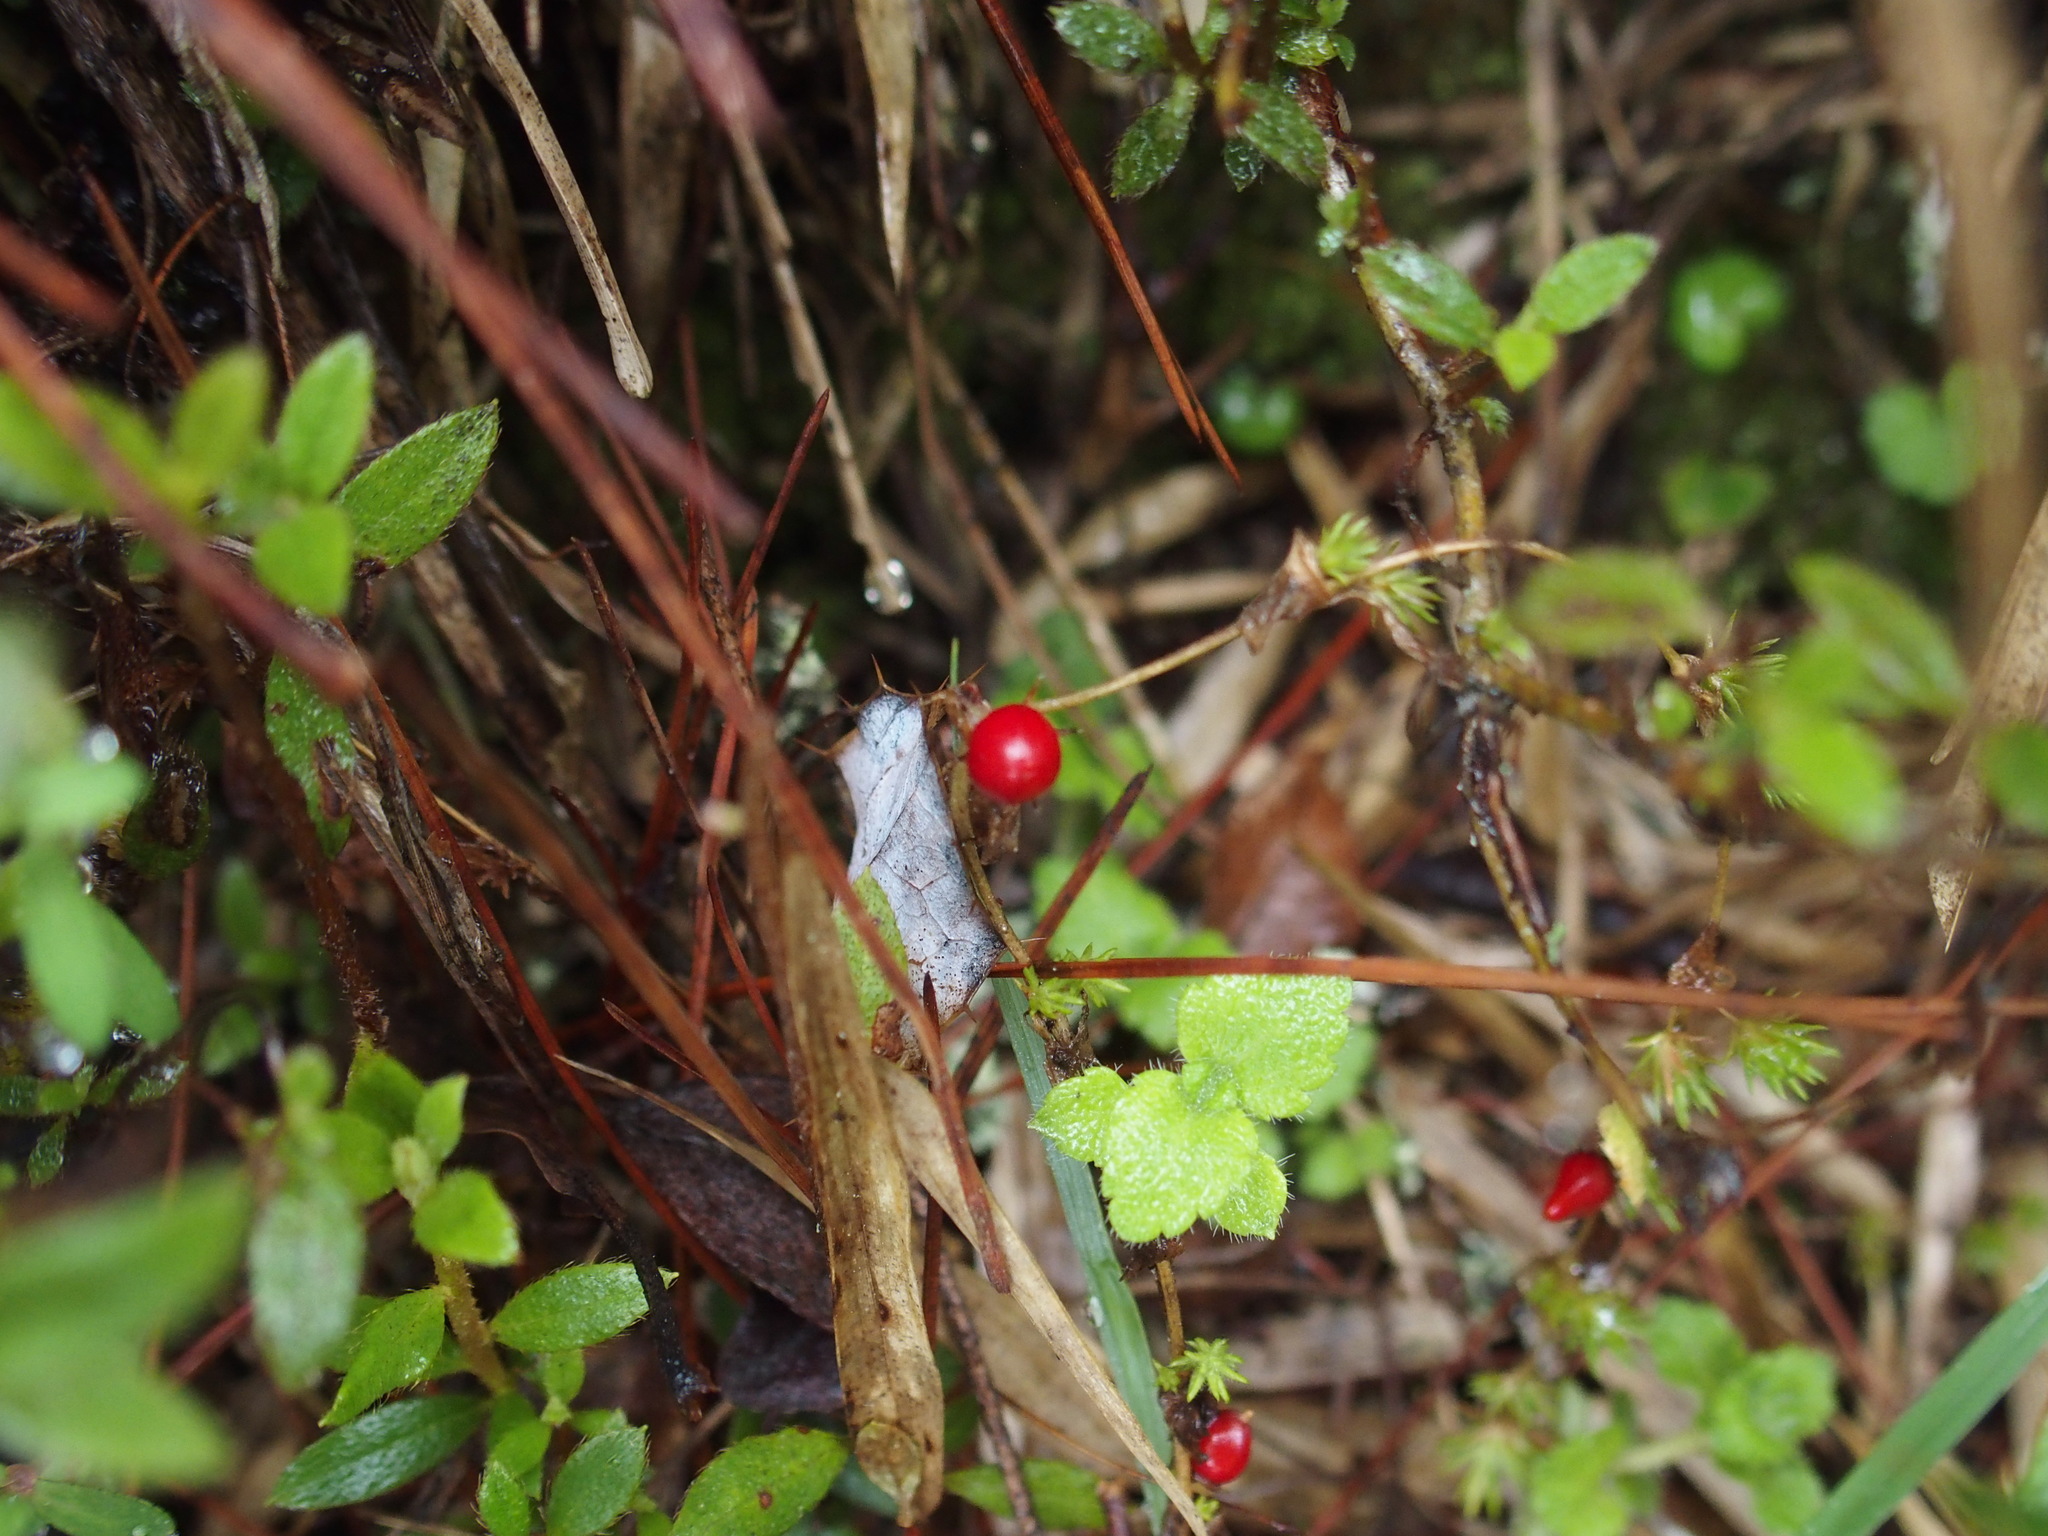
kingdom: Plantae
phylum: Tracheophyta
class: Magnoliopsida
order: Lamiales
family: Plantaginaceae
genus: Hemiphragma
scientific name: Hemiphragma heterophyllum
